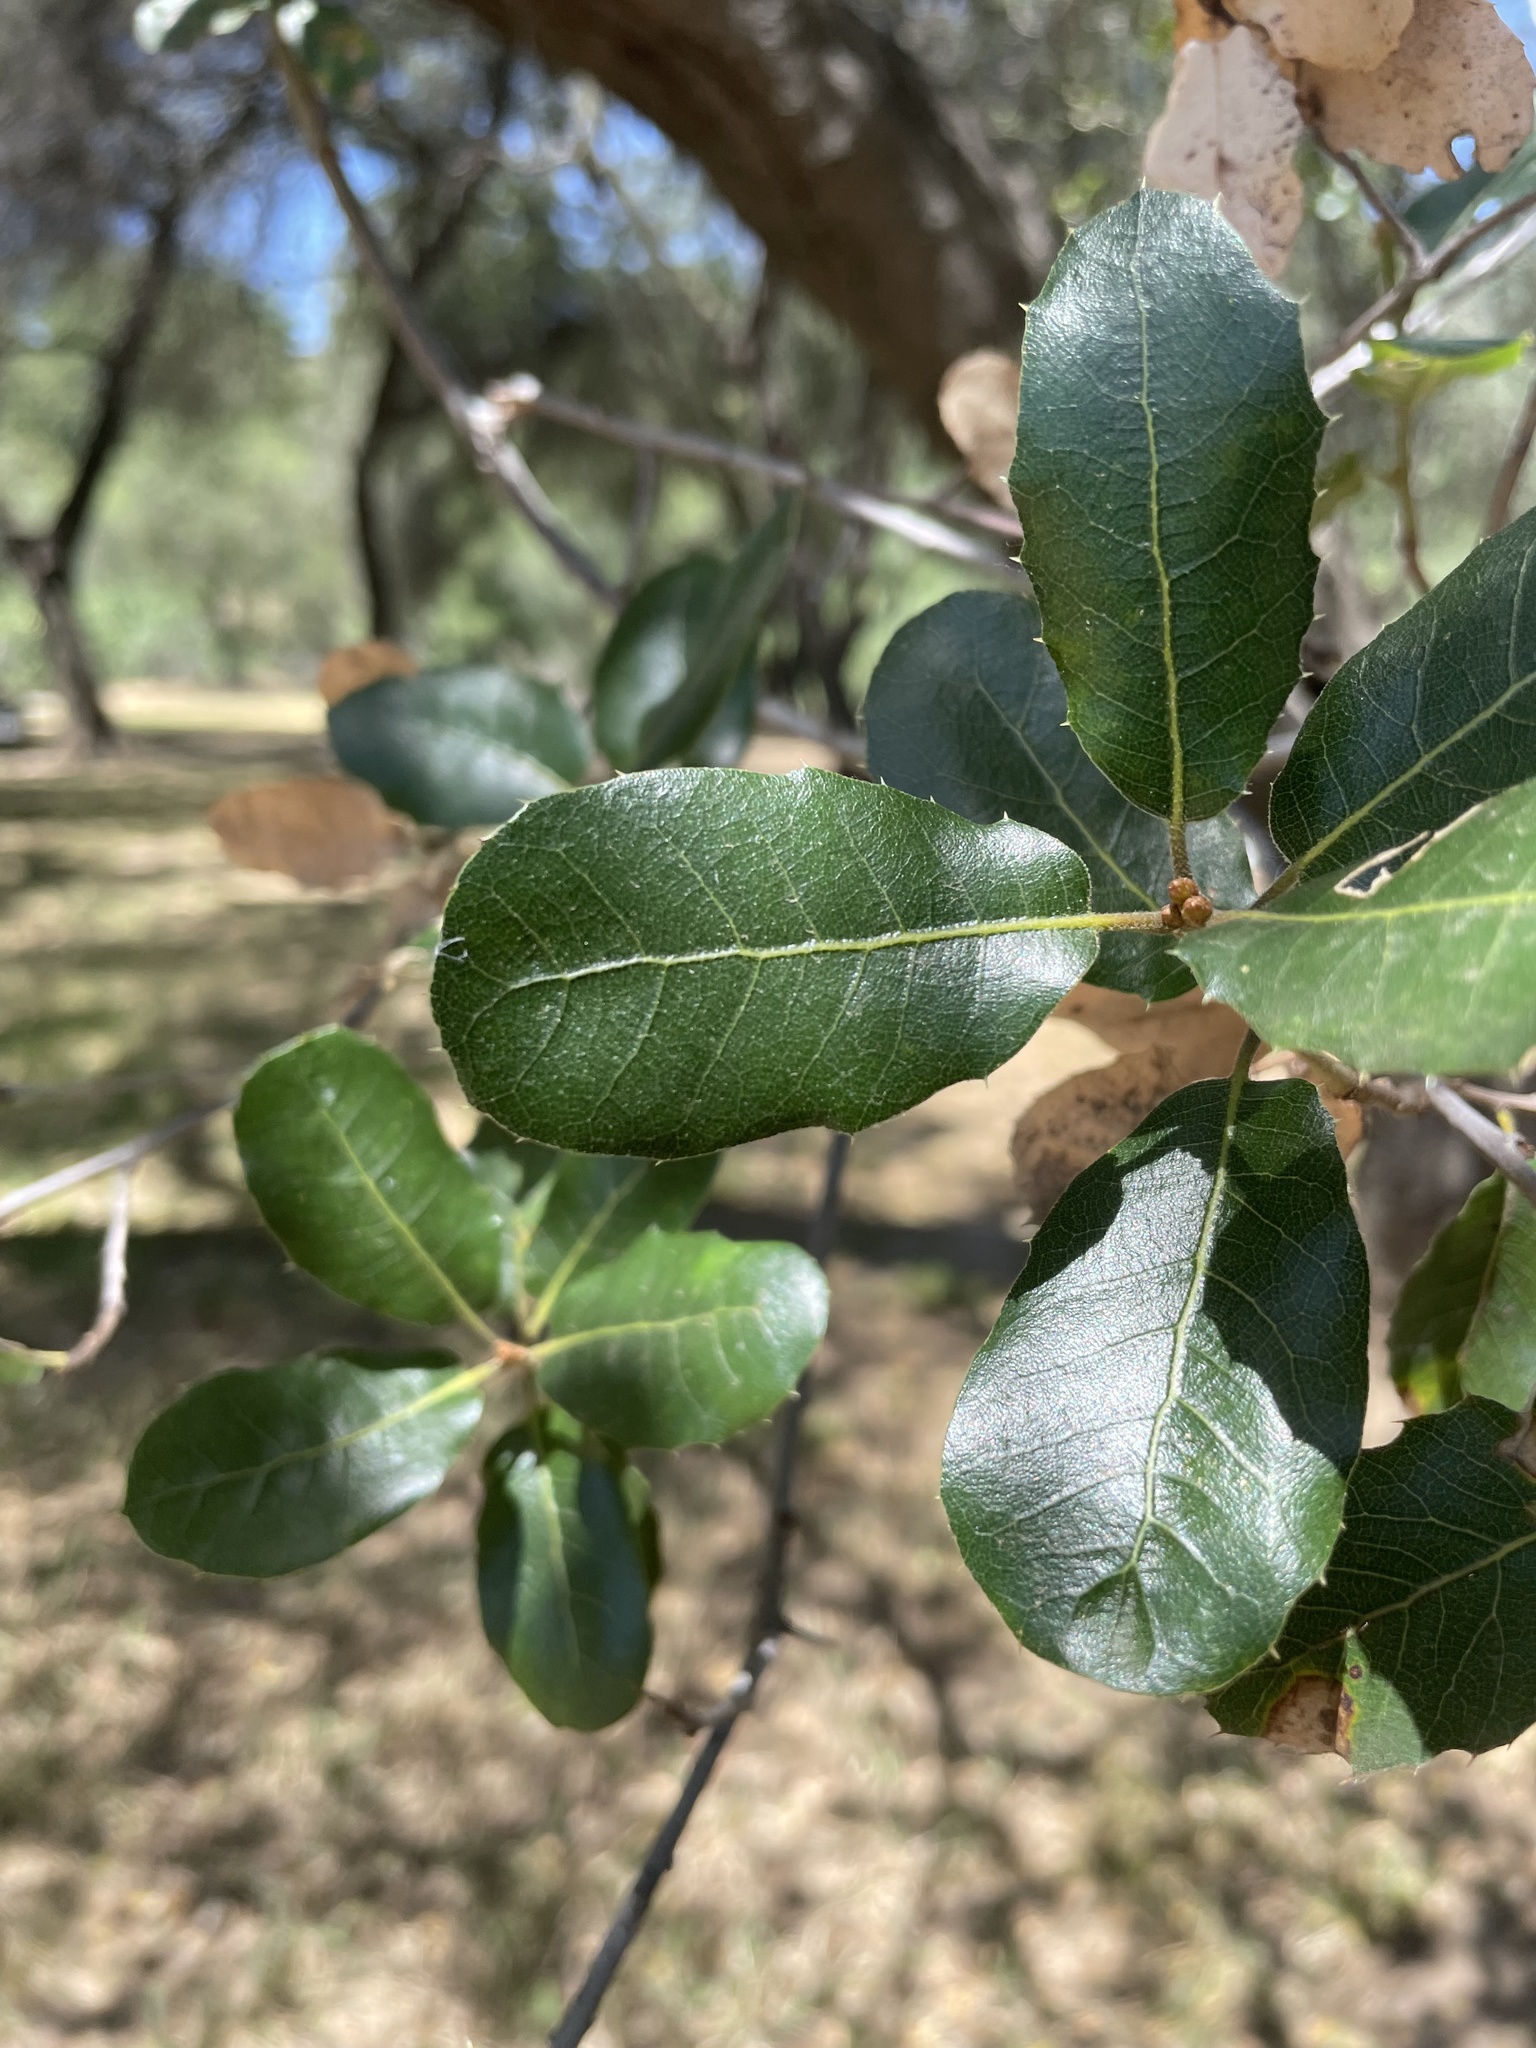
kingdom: Plantae
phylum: Tracheophyta
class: Magnoliopsida
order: Fagales
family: Fagaceae
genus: Quercus
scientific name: Quercus wislizeni
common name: Interior live oak
